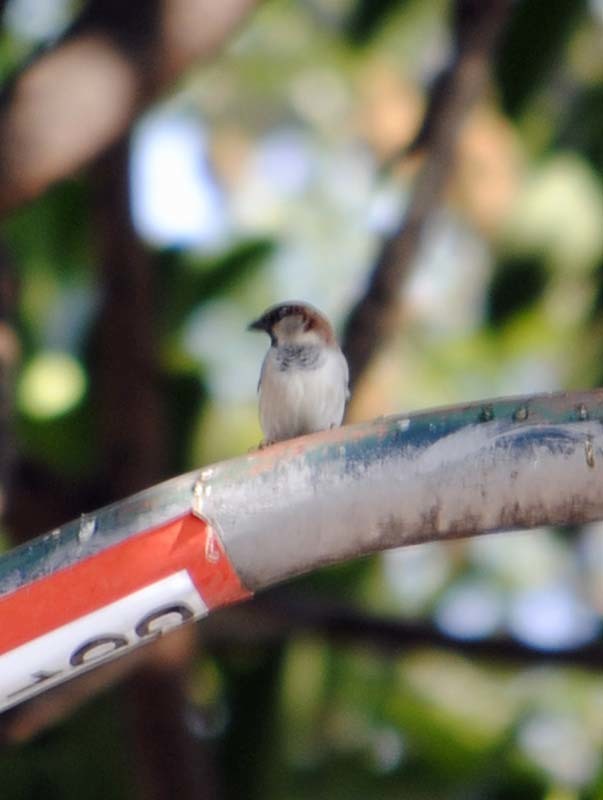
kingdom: Animalia
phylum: Chordata
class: Aves
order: Passeriformes
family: Passeridae
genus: Passer
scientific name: Passer domesticus
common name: House sparrow
